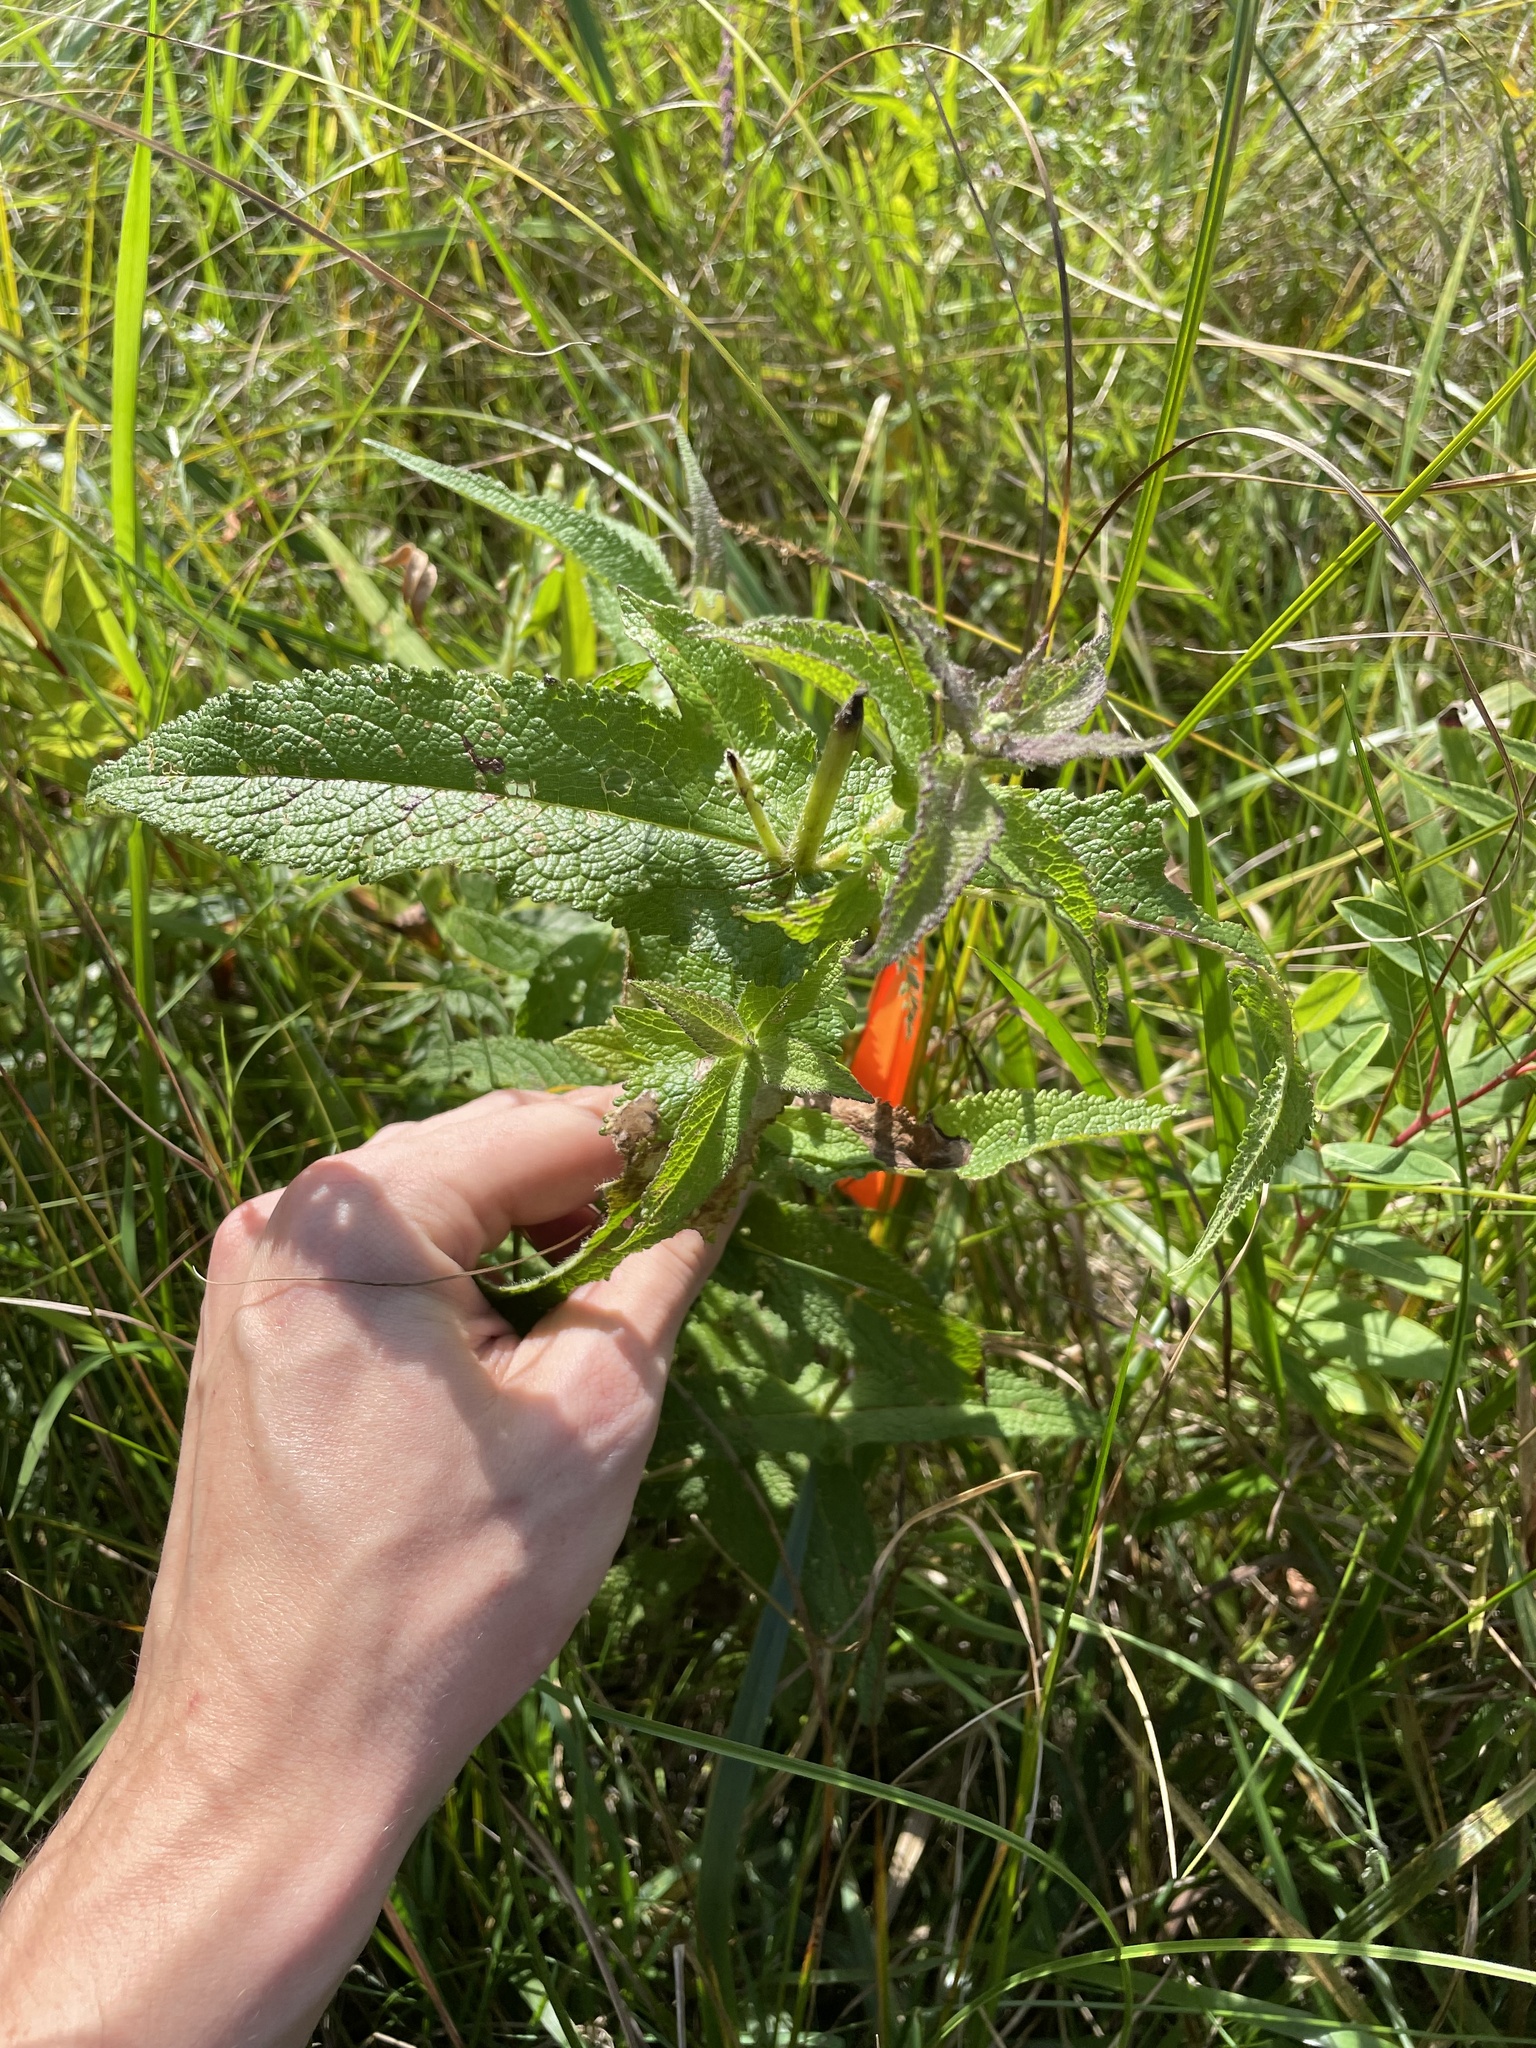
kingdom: Plantae
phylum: Tracheophyta
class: Magnoliopsida
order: Asterales
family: Asteraceae
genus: Eupatorium
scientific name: Eupatorium perfoliatum
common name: Boneset
